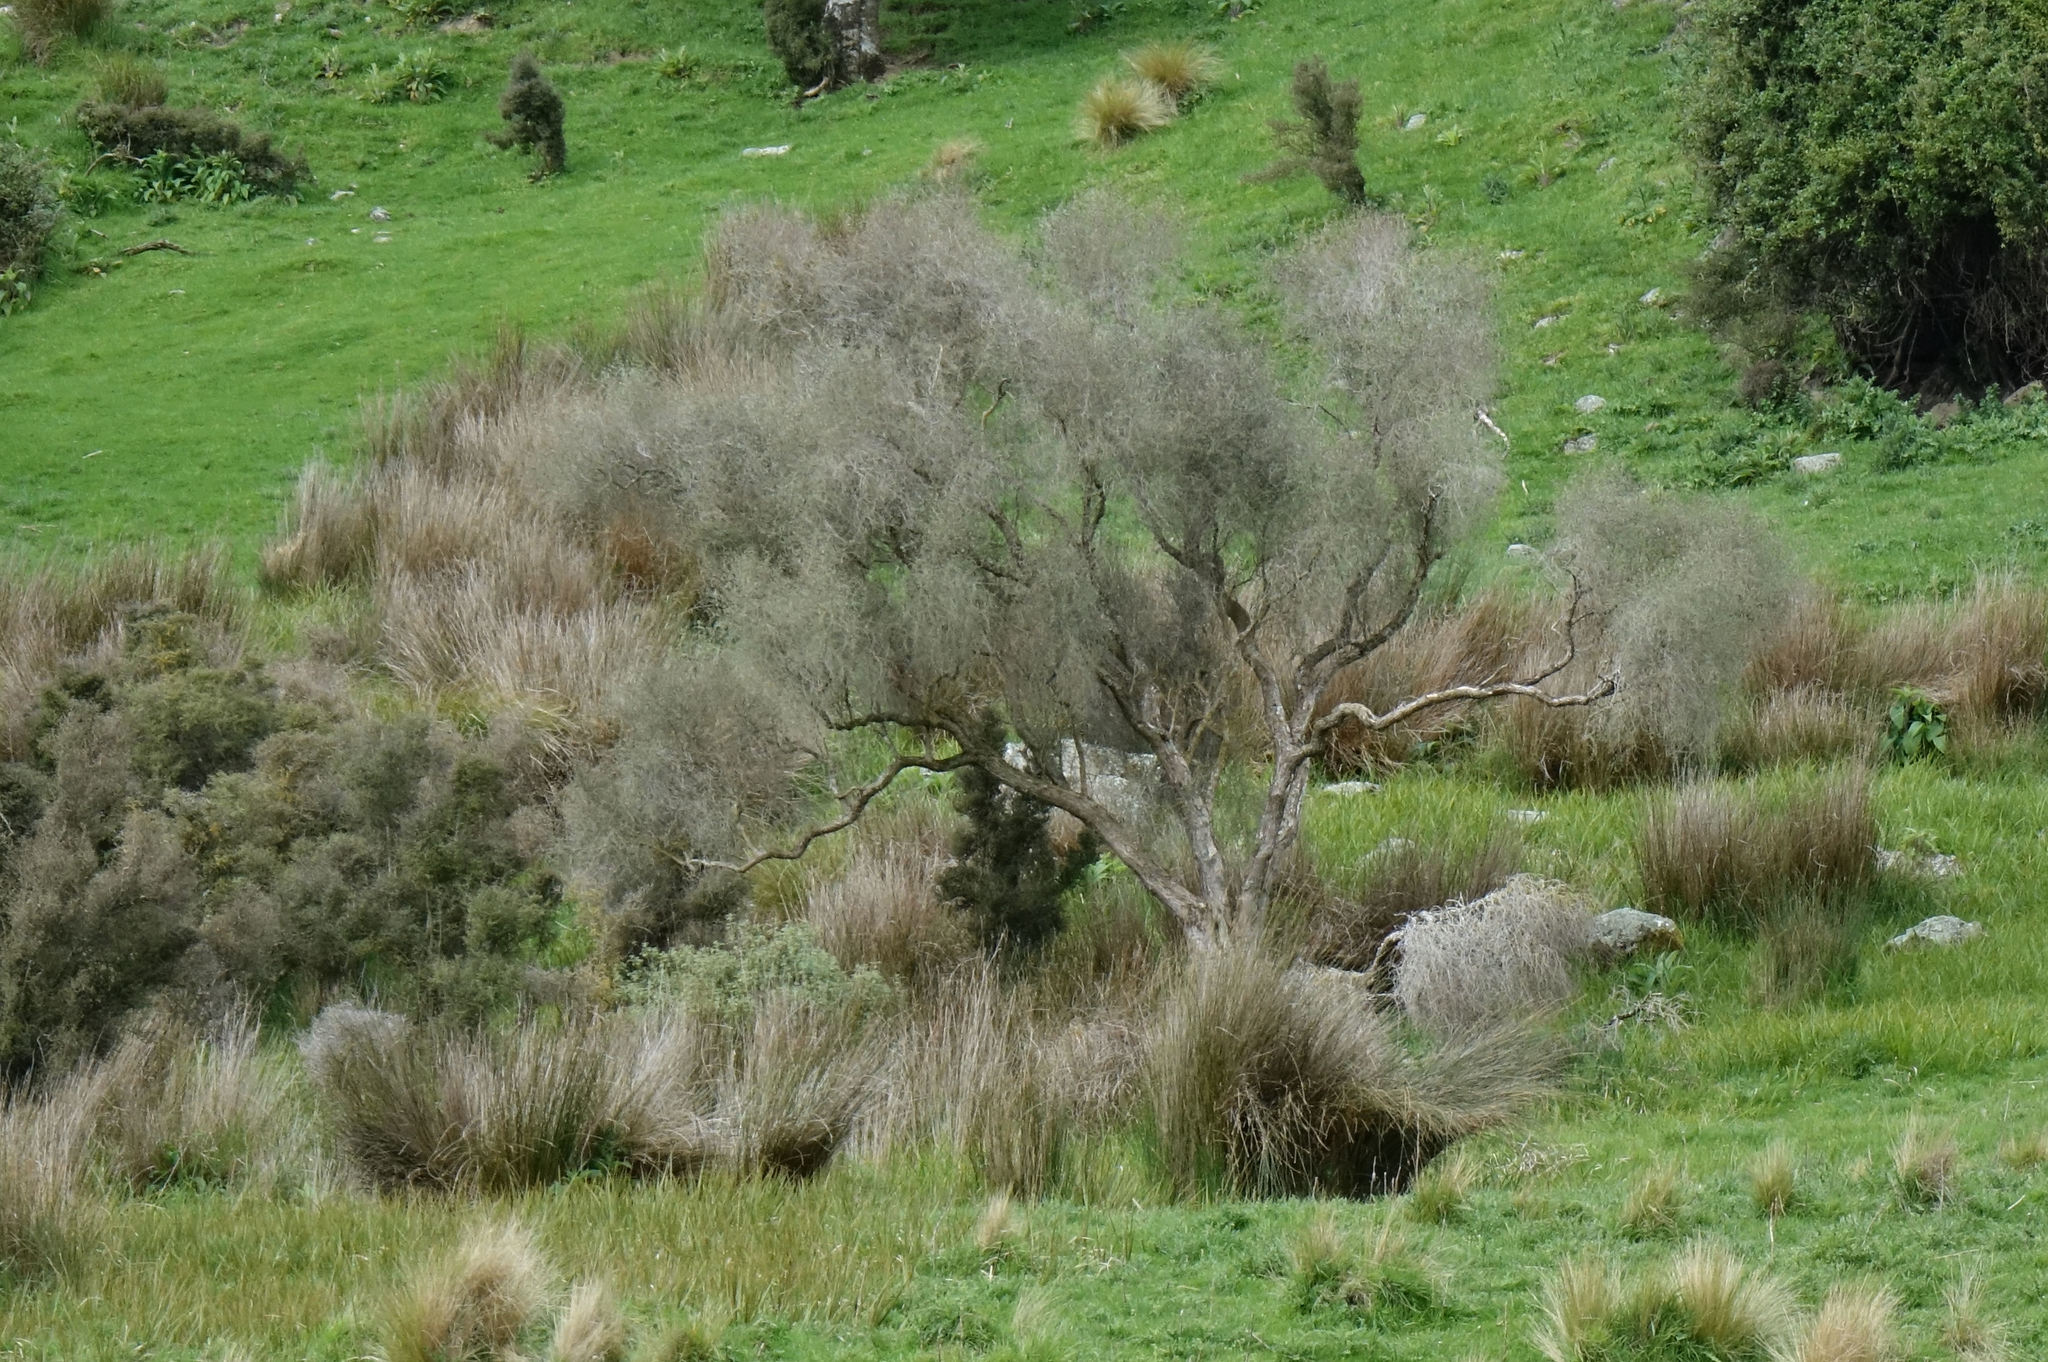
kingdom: Plantae
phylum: Tracheophyta
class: Magnoliopsida
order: Asterales
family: Asteraceae
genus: Olearia
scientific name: Olearia lineata
